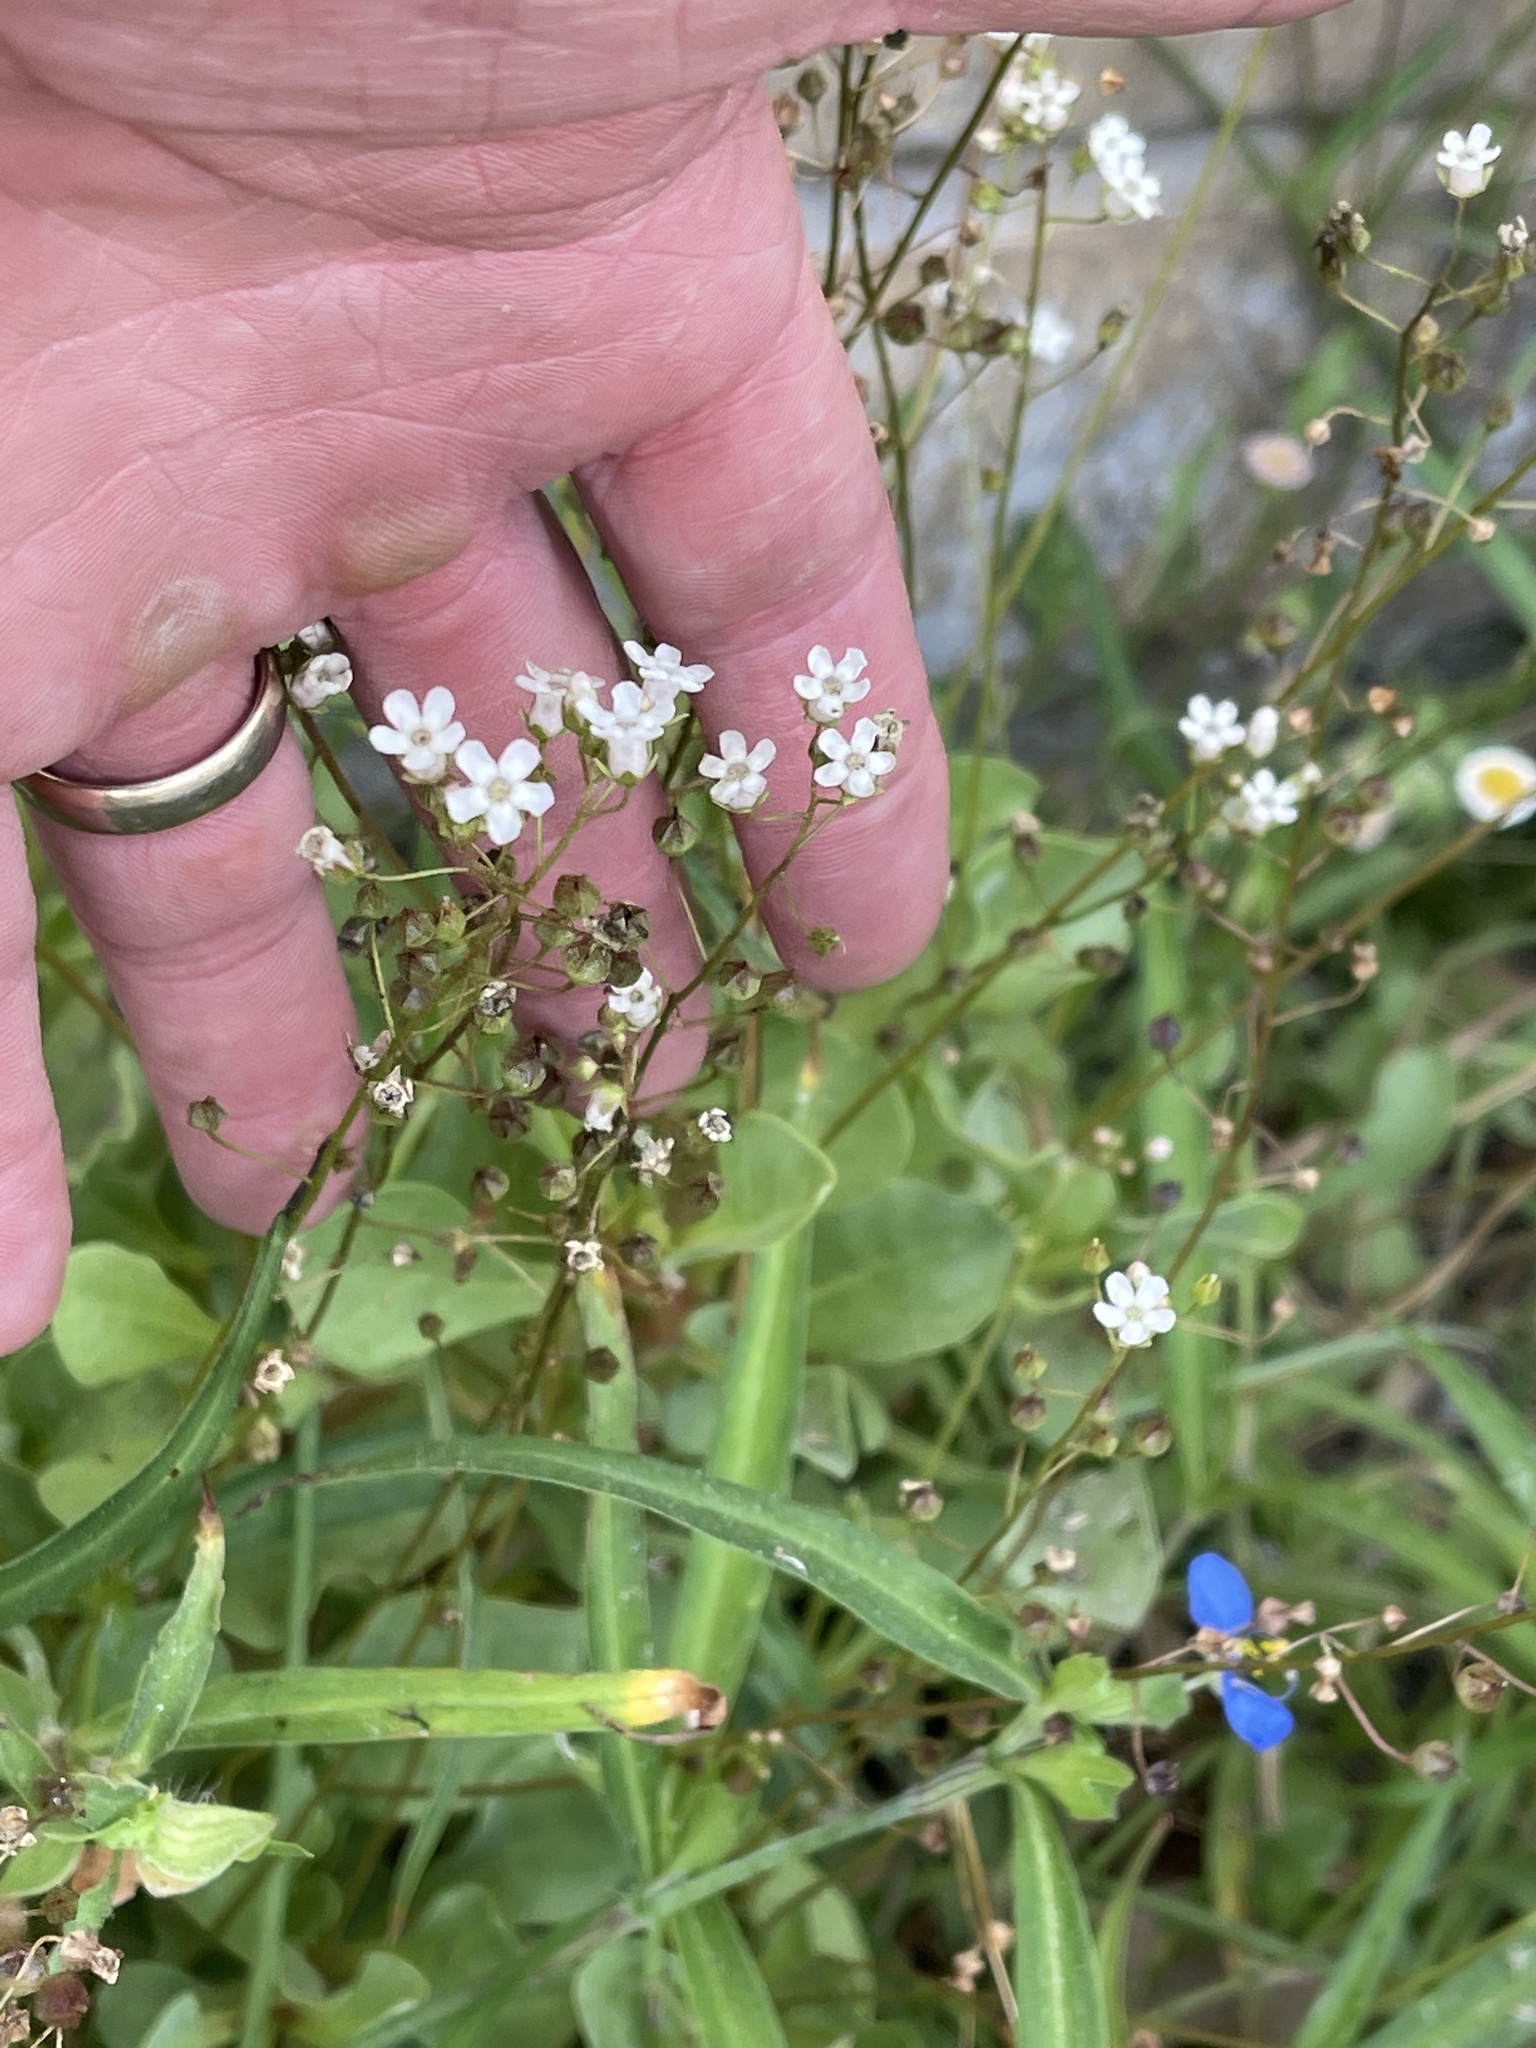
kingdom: Plantae
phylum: Tracheophyta
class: Magnoliopsida
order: Ericales
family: Primulaceae
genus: Samolus
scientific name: Samolus ebracteatus
